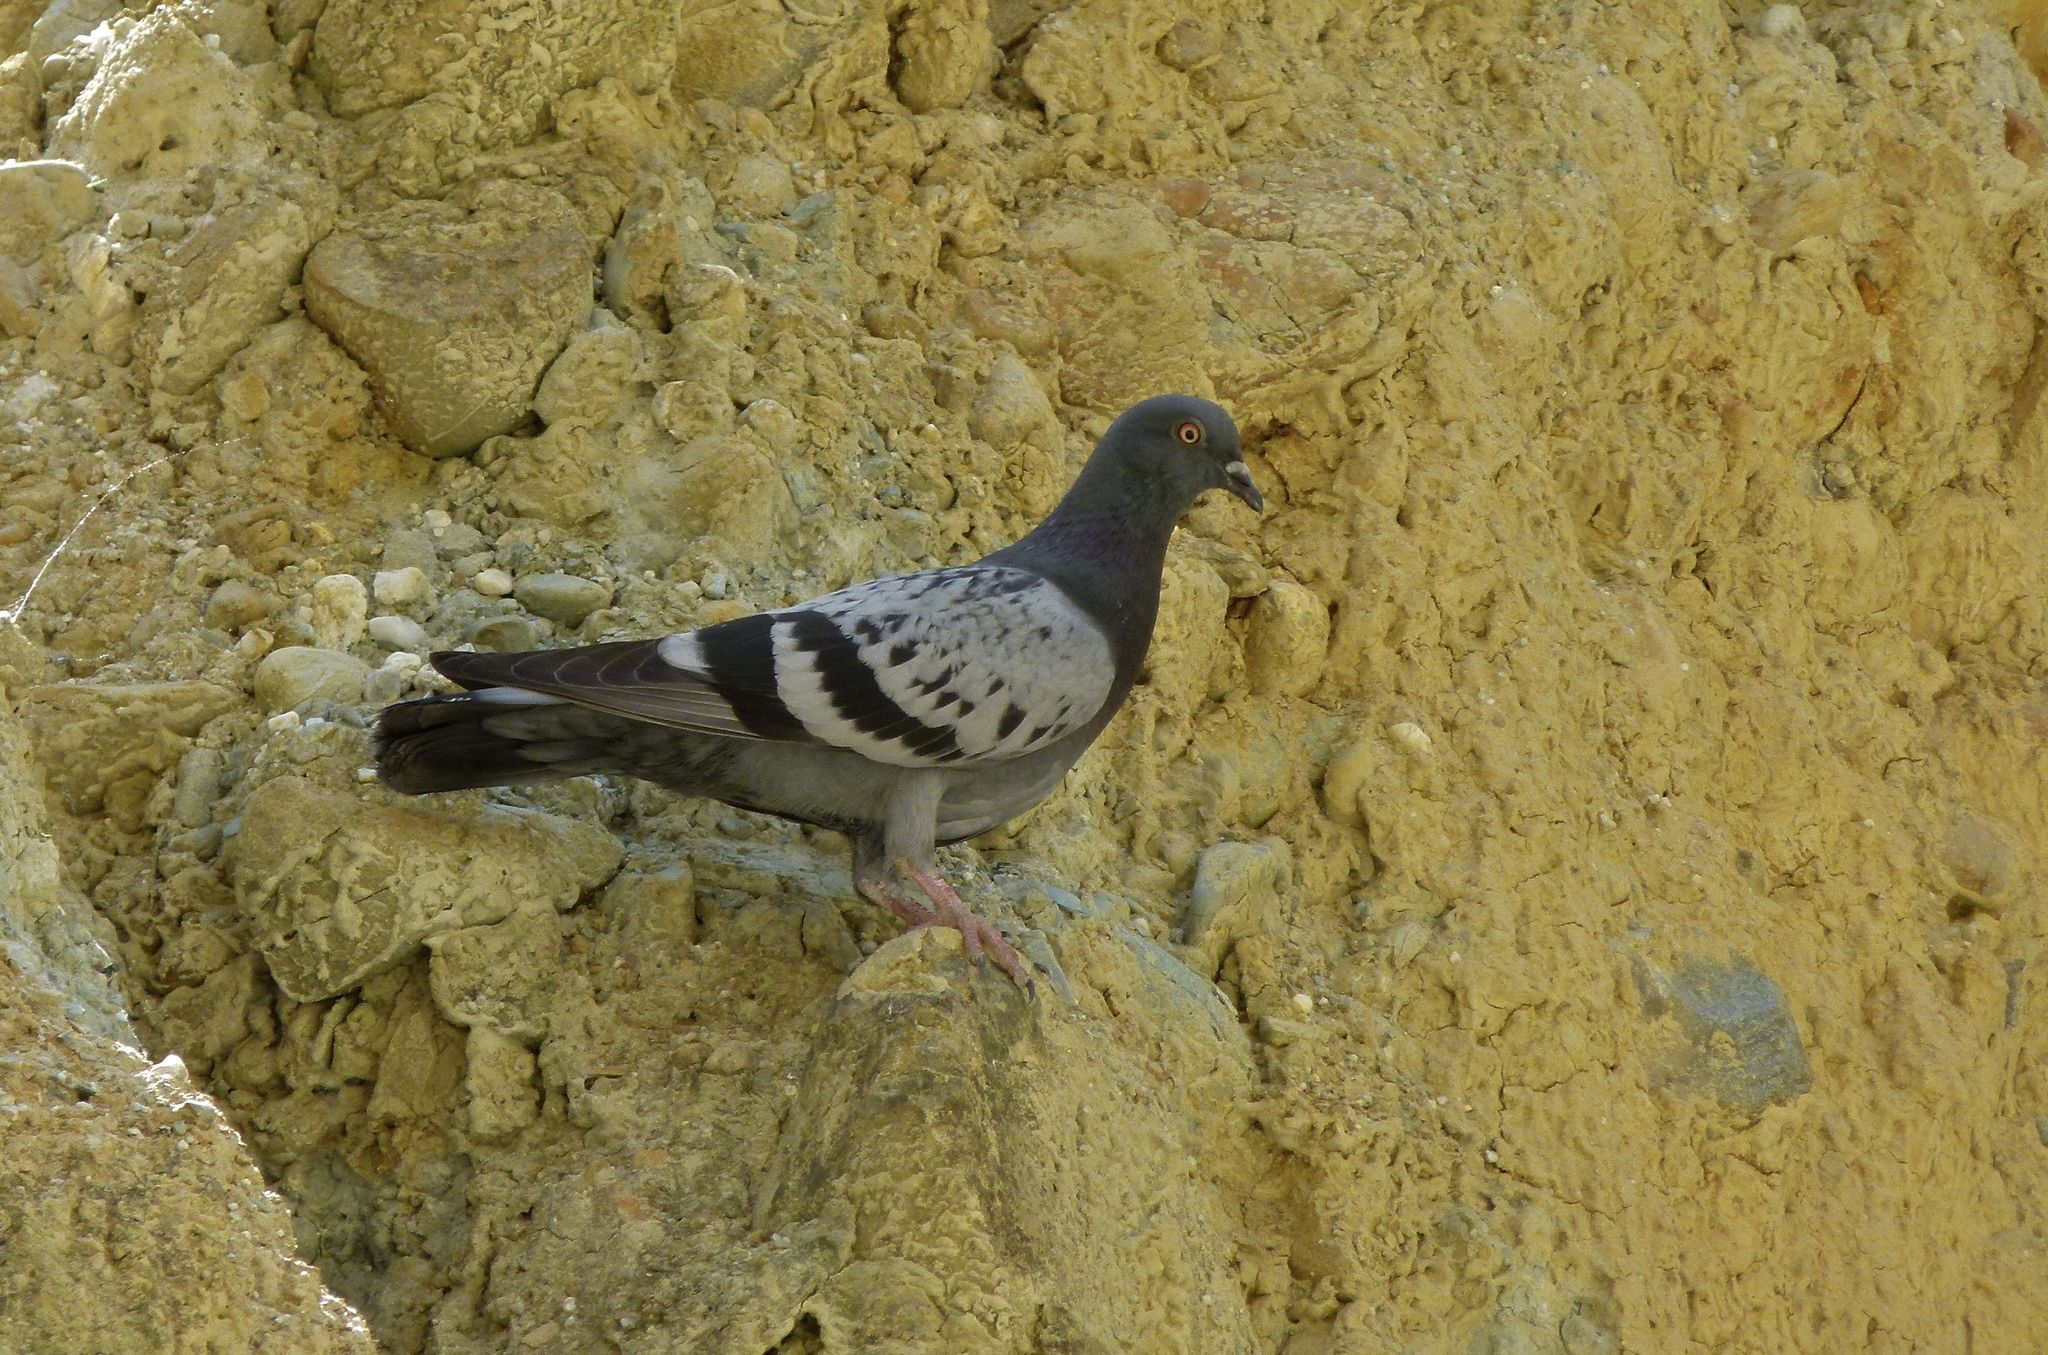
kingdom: Animalia
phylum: Chordata
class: Aves
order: Columbiformes
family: Columbidae
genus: Columba
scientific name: Columba livia
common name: Rock pigeon
